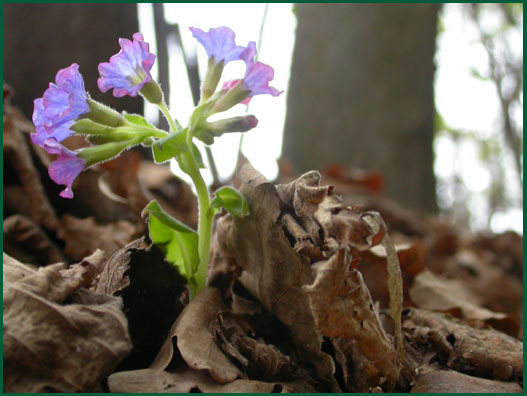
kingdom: Plantae
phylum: Tracheophyta
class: Magnoliopsida
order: Boraginales
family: Boraginaceae
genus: Pulmonaria
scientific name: Pulmonaria obscura
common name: Suffolk lungwort
